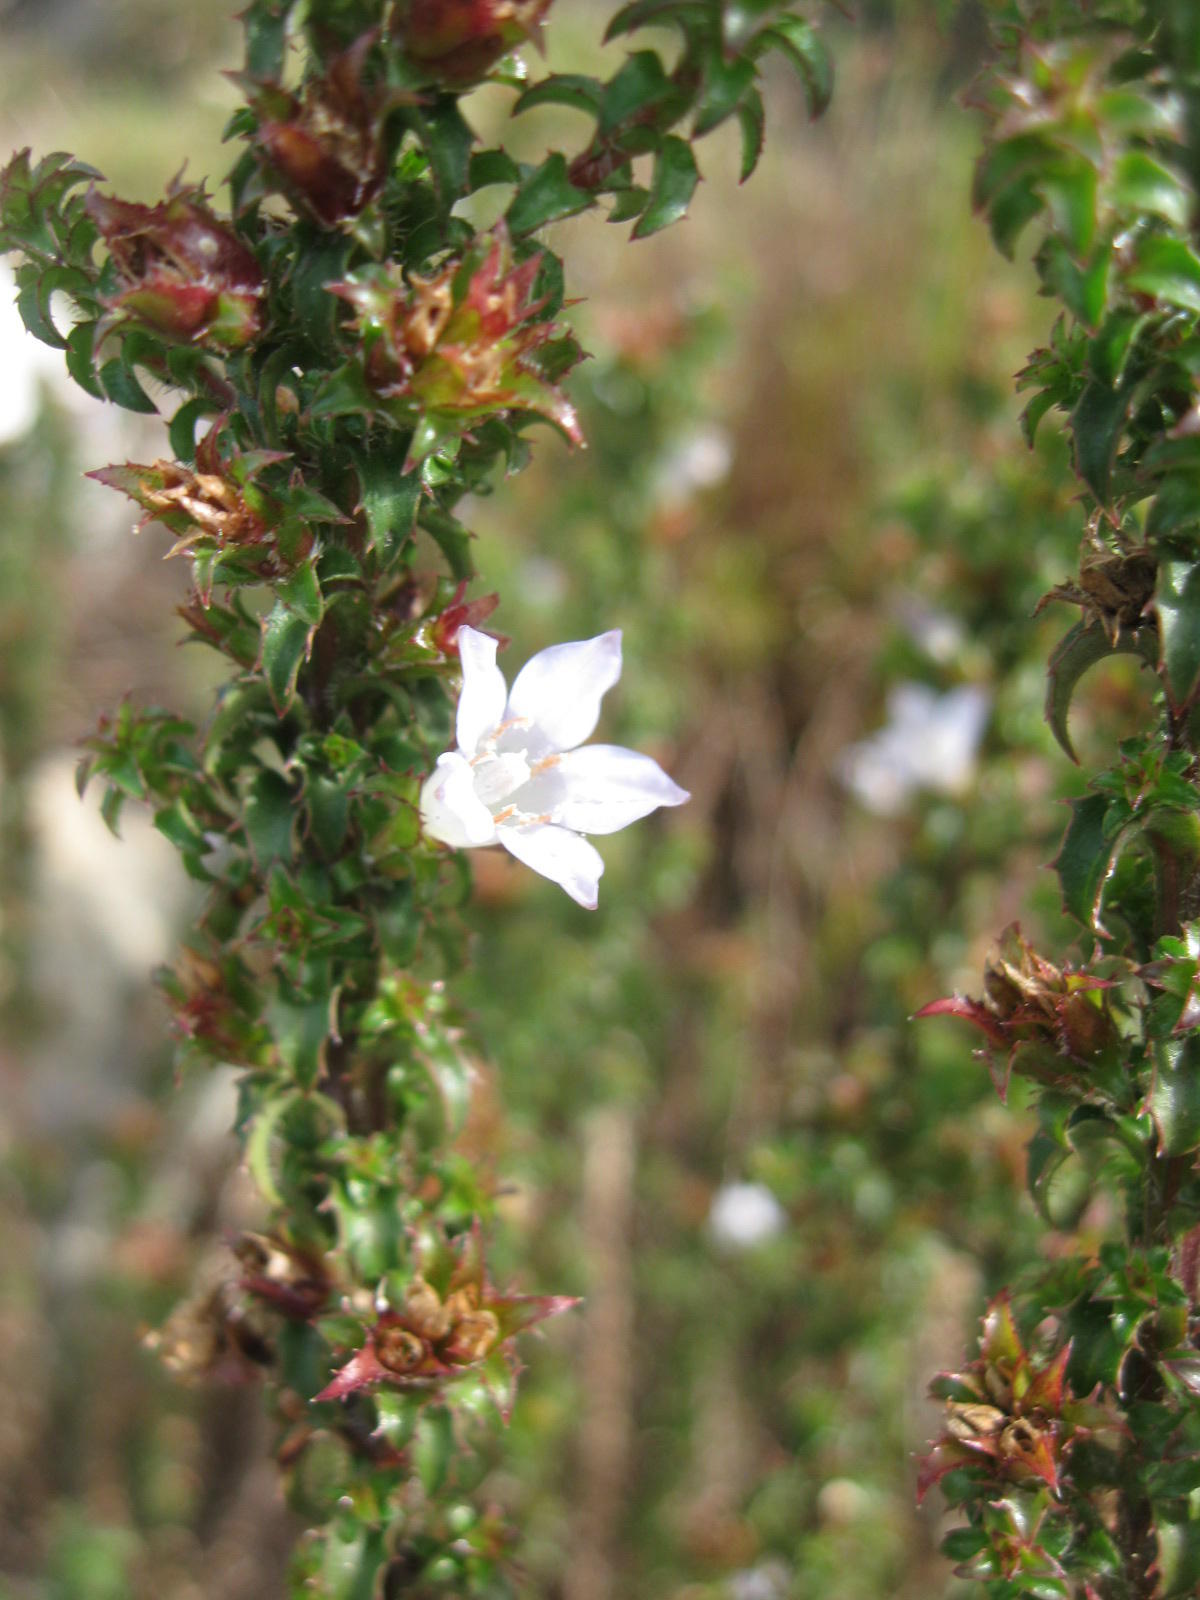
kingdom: Plantae
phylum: Tracheophyta
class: Magnoliopsida
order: Asterales
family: Campanulaceae
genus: Roella
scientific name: Roella squarrosa
